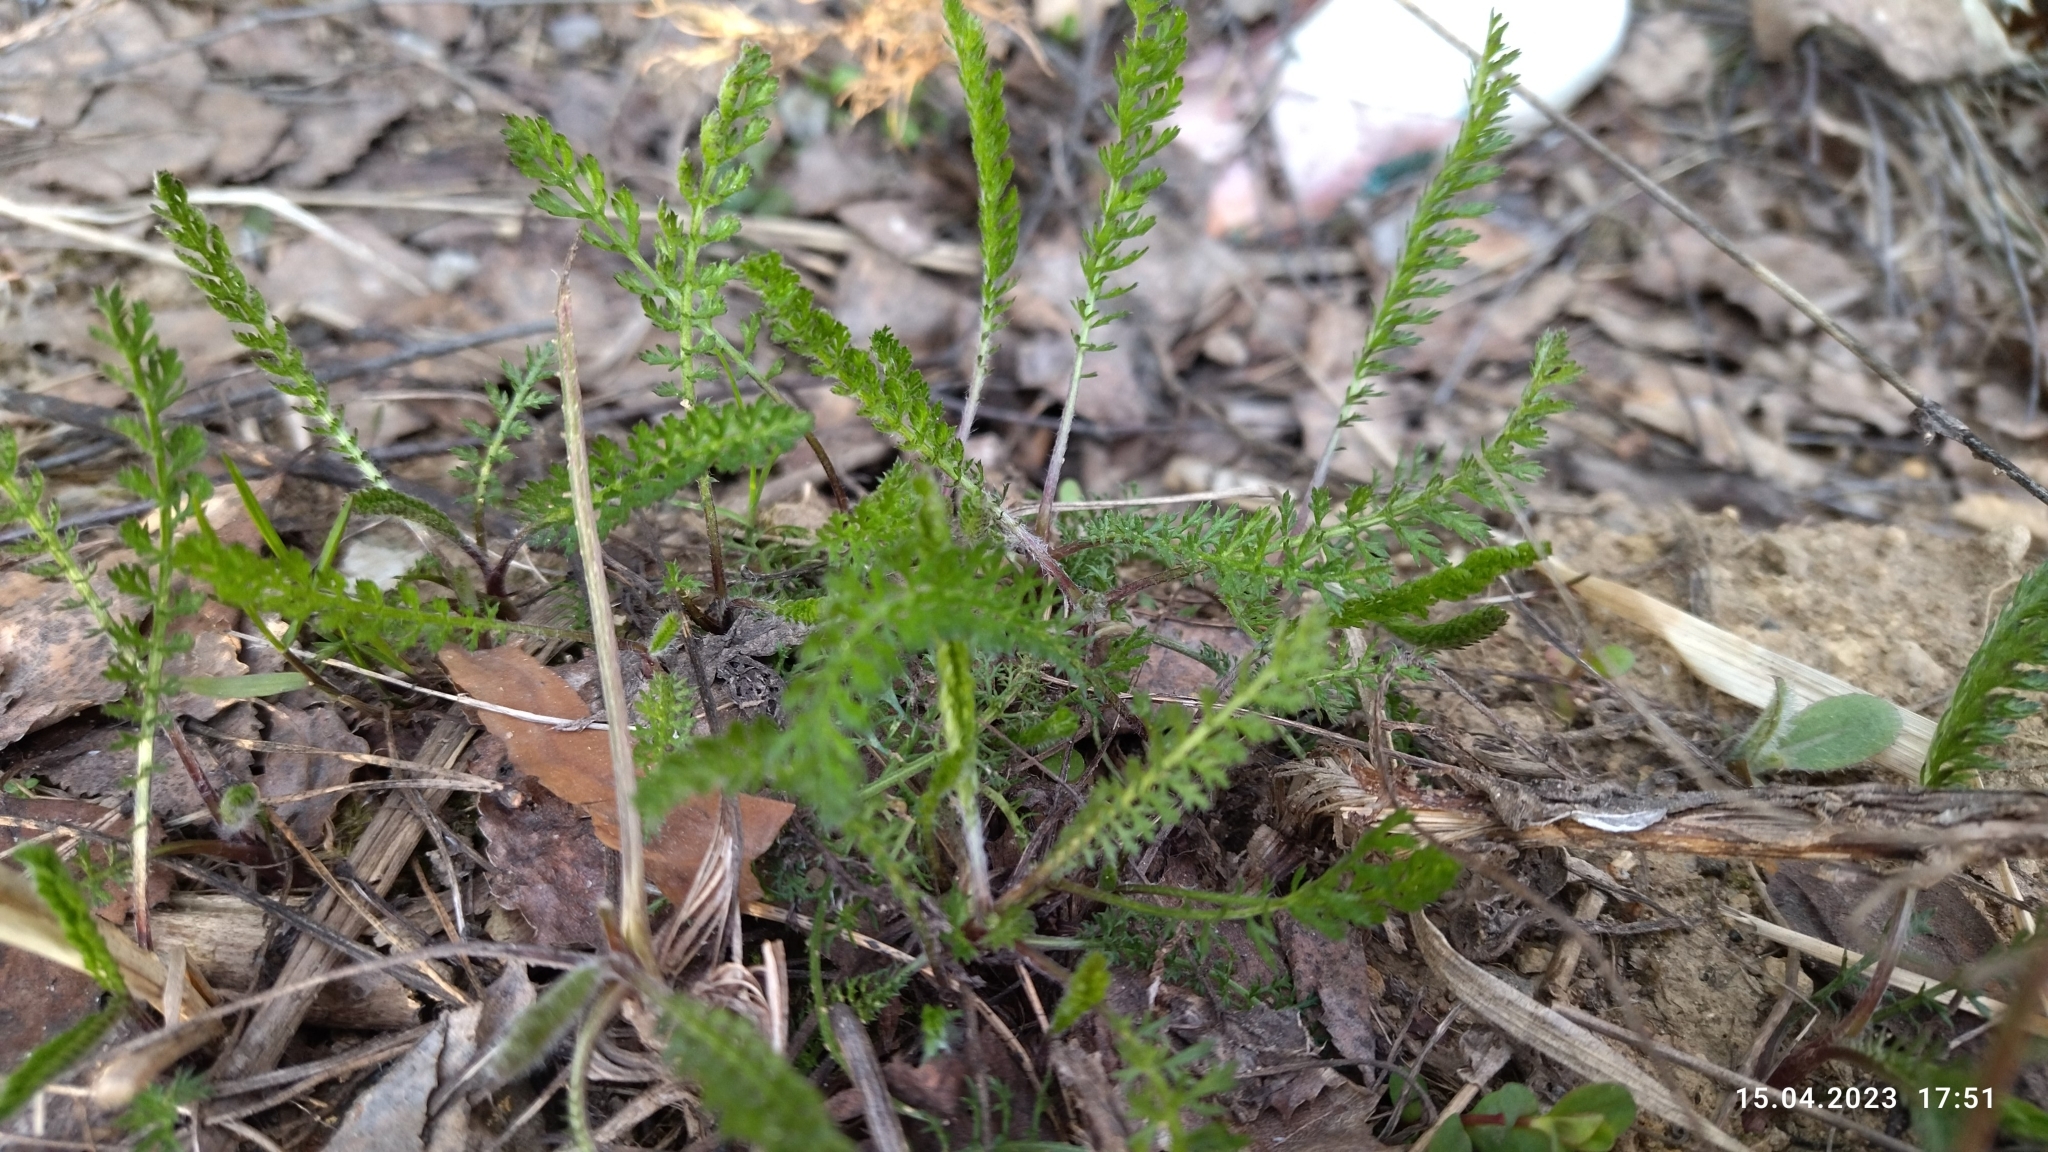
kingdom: Plantae
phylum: Tracheophyta
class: Magnoliopsida
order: Asterales
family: Asteraceae
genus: Achillea
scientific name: Achillea millefolium
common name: Yarrow
